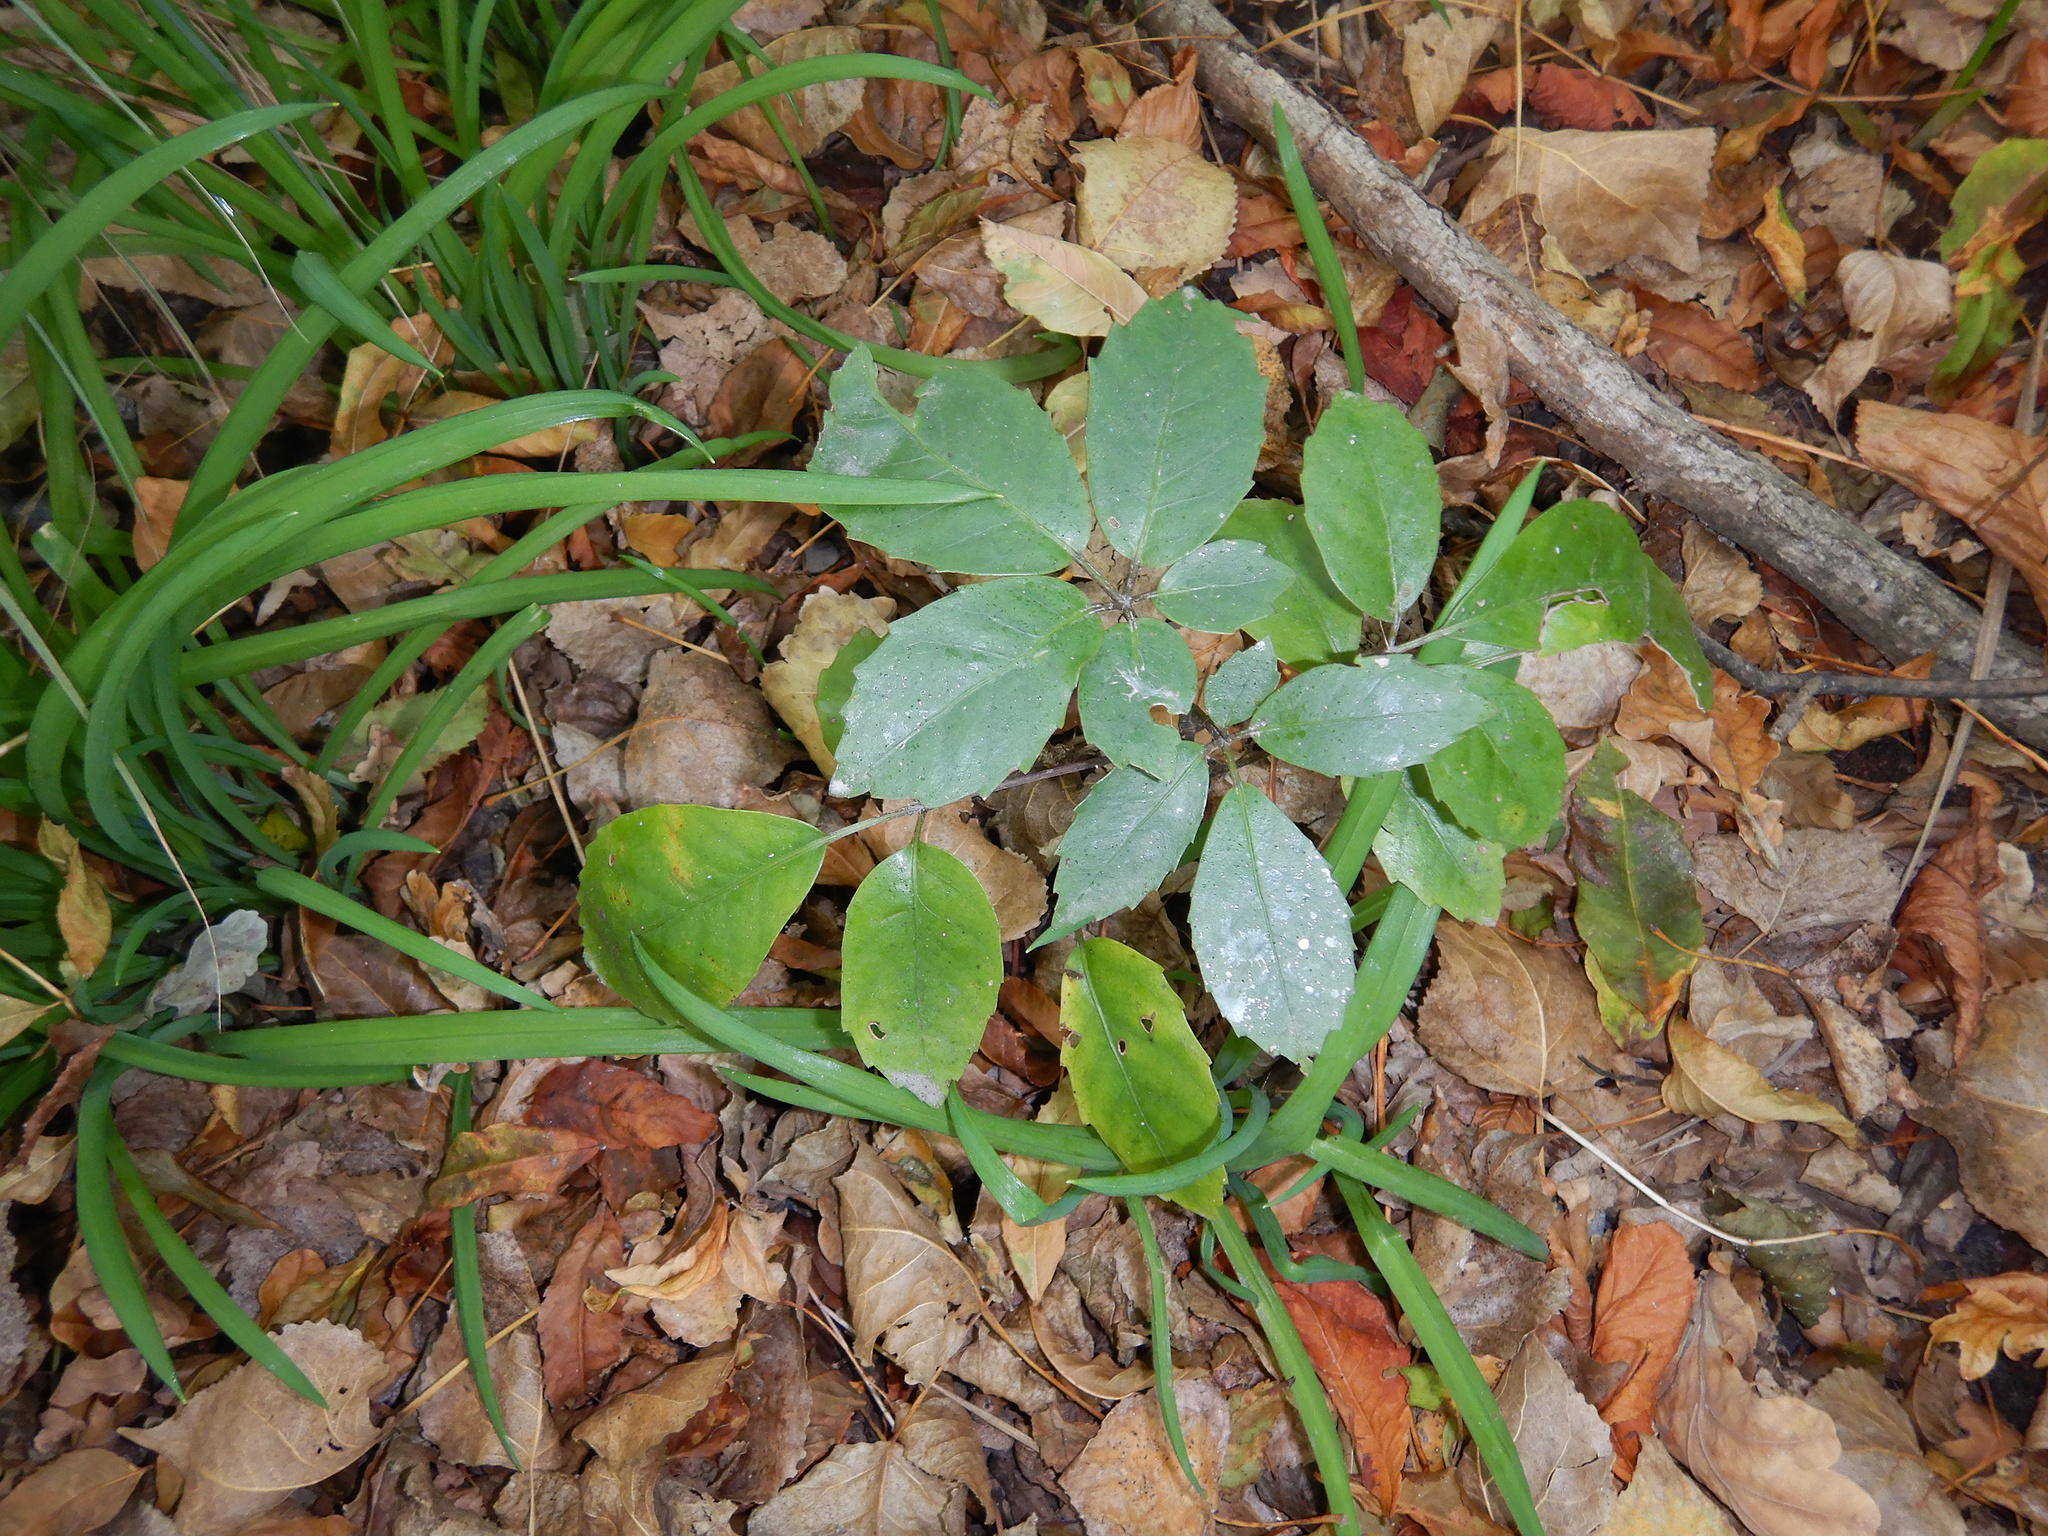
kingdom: Plantae
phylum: Tracheophyta
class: Magnoliopsida
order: Apiales
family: Araliaceae
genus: Neopanax
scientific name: Neopanax arboreus
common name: Five-fingers
